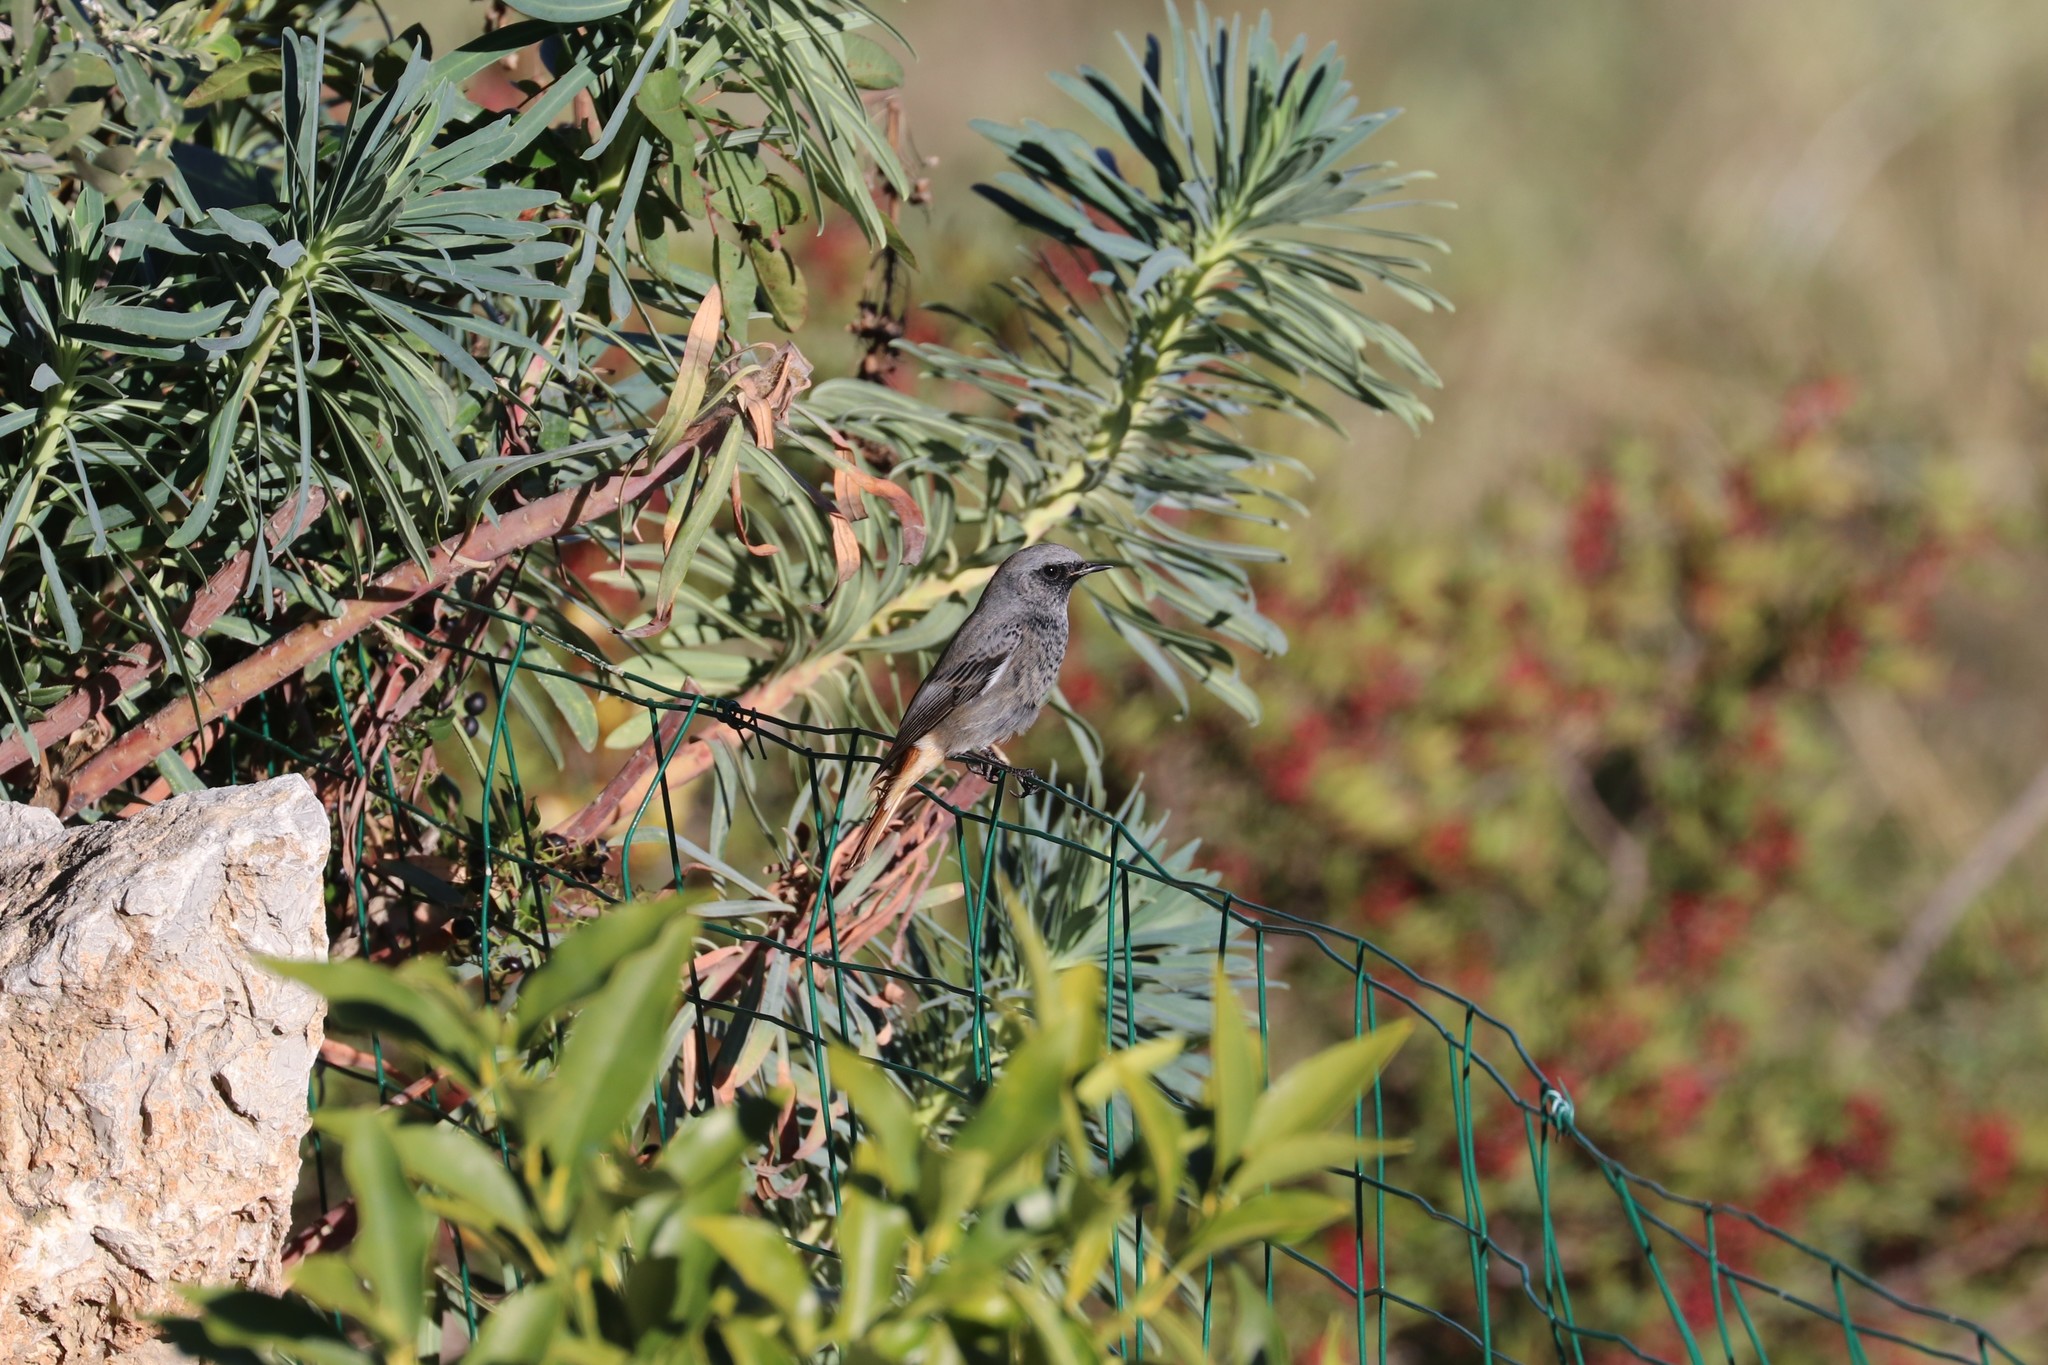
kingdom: Animalia
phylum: Chordata
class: Aves
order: Passeriformes
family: Muscicapidae
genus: Phoenicurus
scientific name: Phoenicurus ochruros
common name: Black redstart
